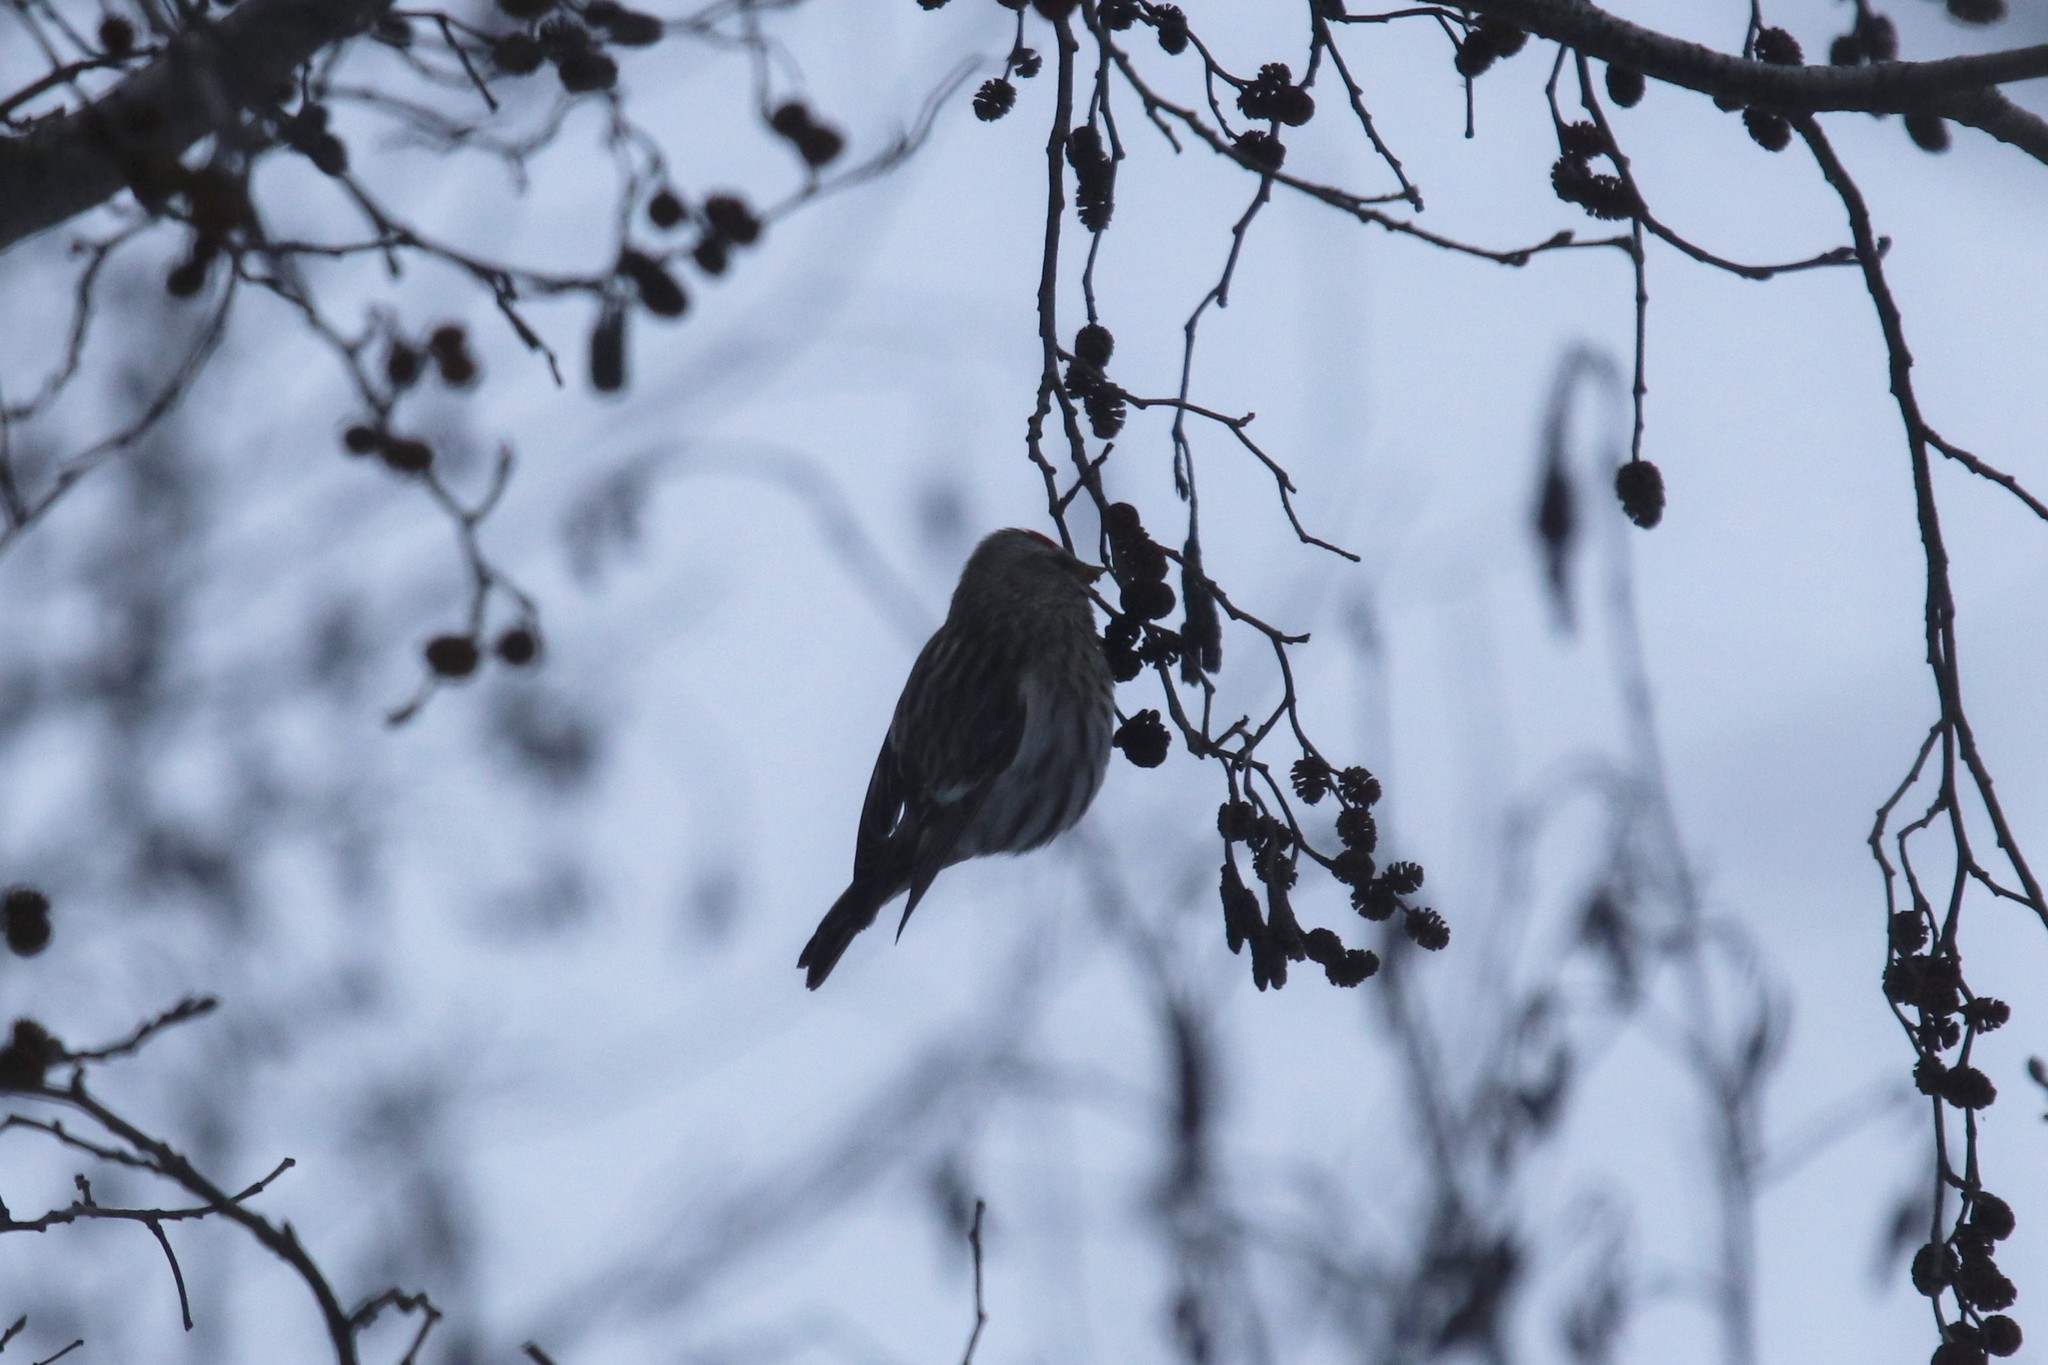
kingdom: Animalia
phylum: Chordata
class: Aves
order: Passeriformes
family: Fringillidae
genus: Acanthis
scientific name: Acanthis flammea
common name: Common redpoll
